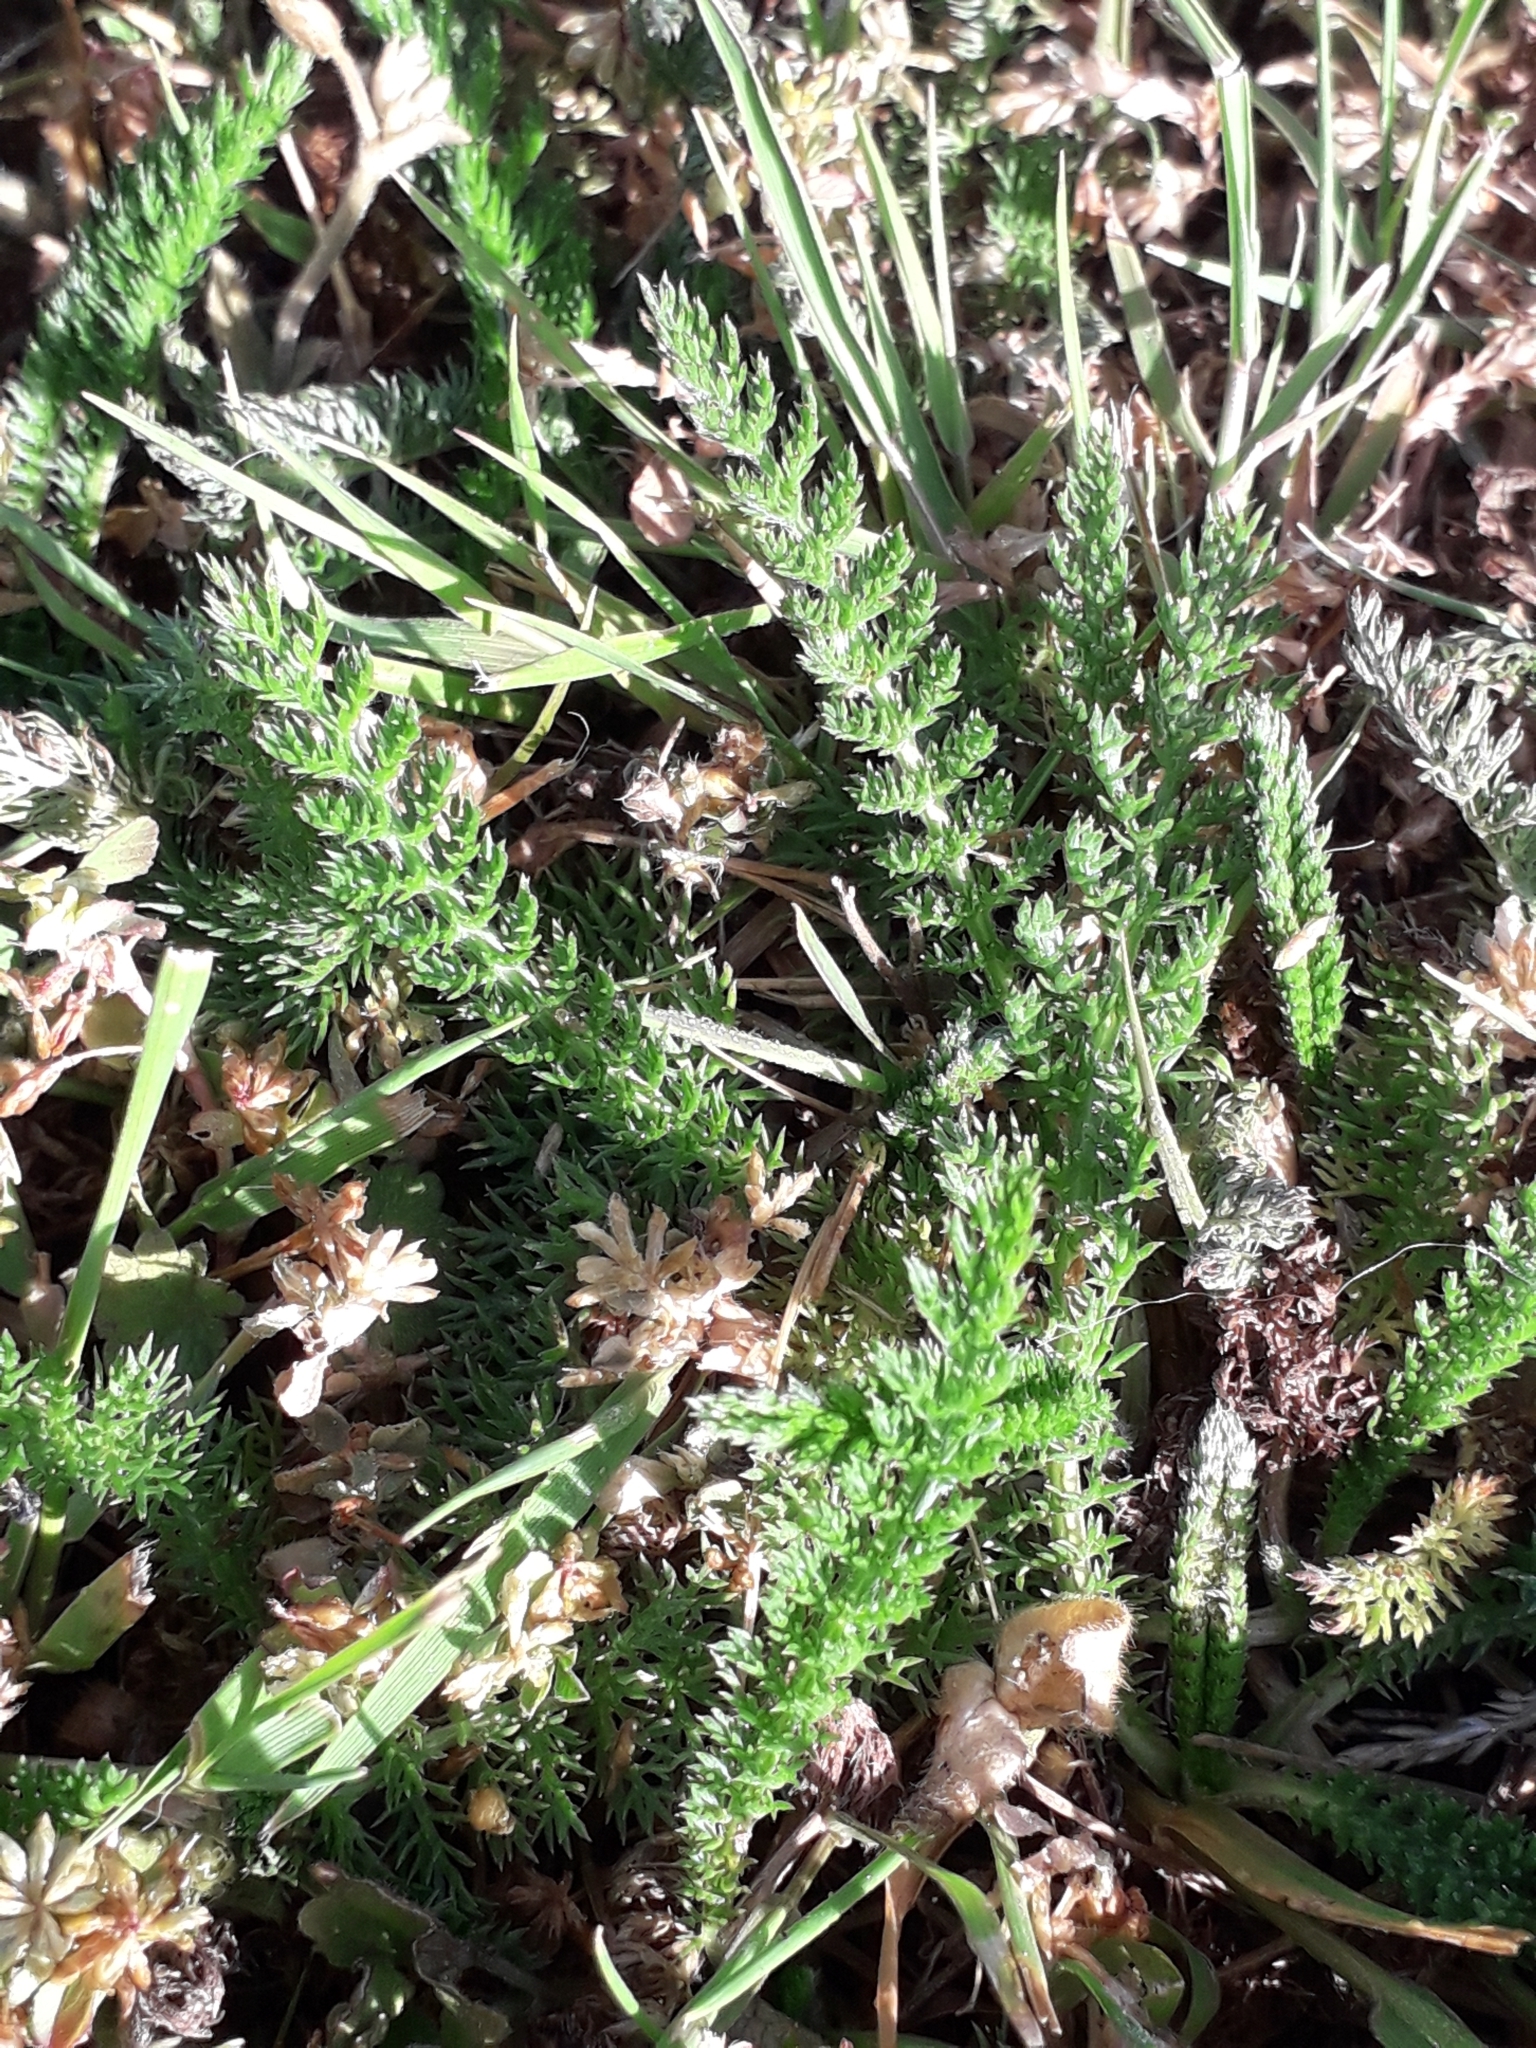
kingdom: Plantae
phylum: Tracheophyta
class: Magnoliopsida
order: Asterales
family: Asteraceae
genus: Achillea
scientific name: Achillea millefolium
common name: Yarrow
